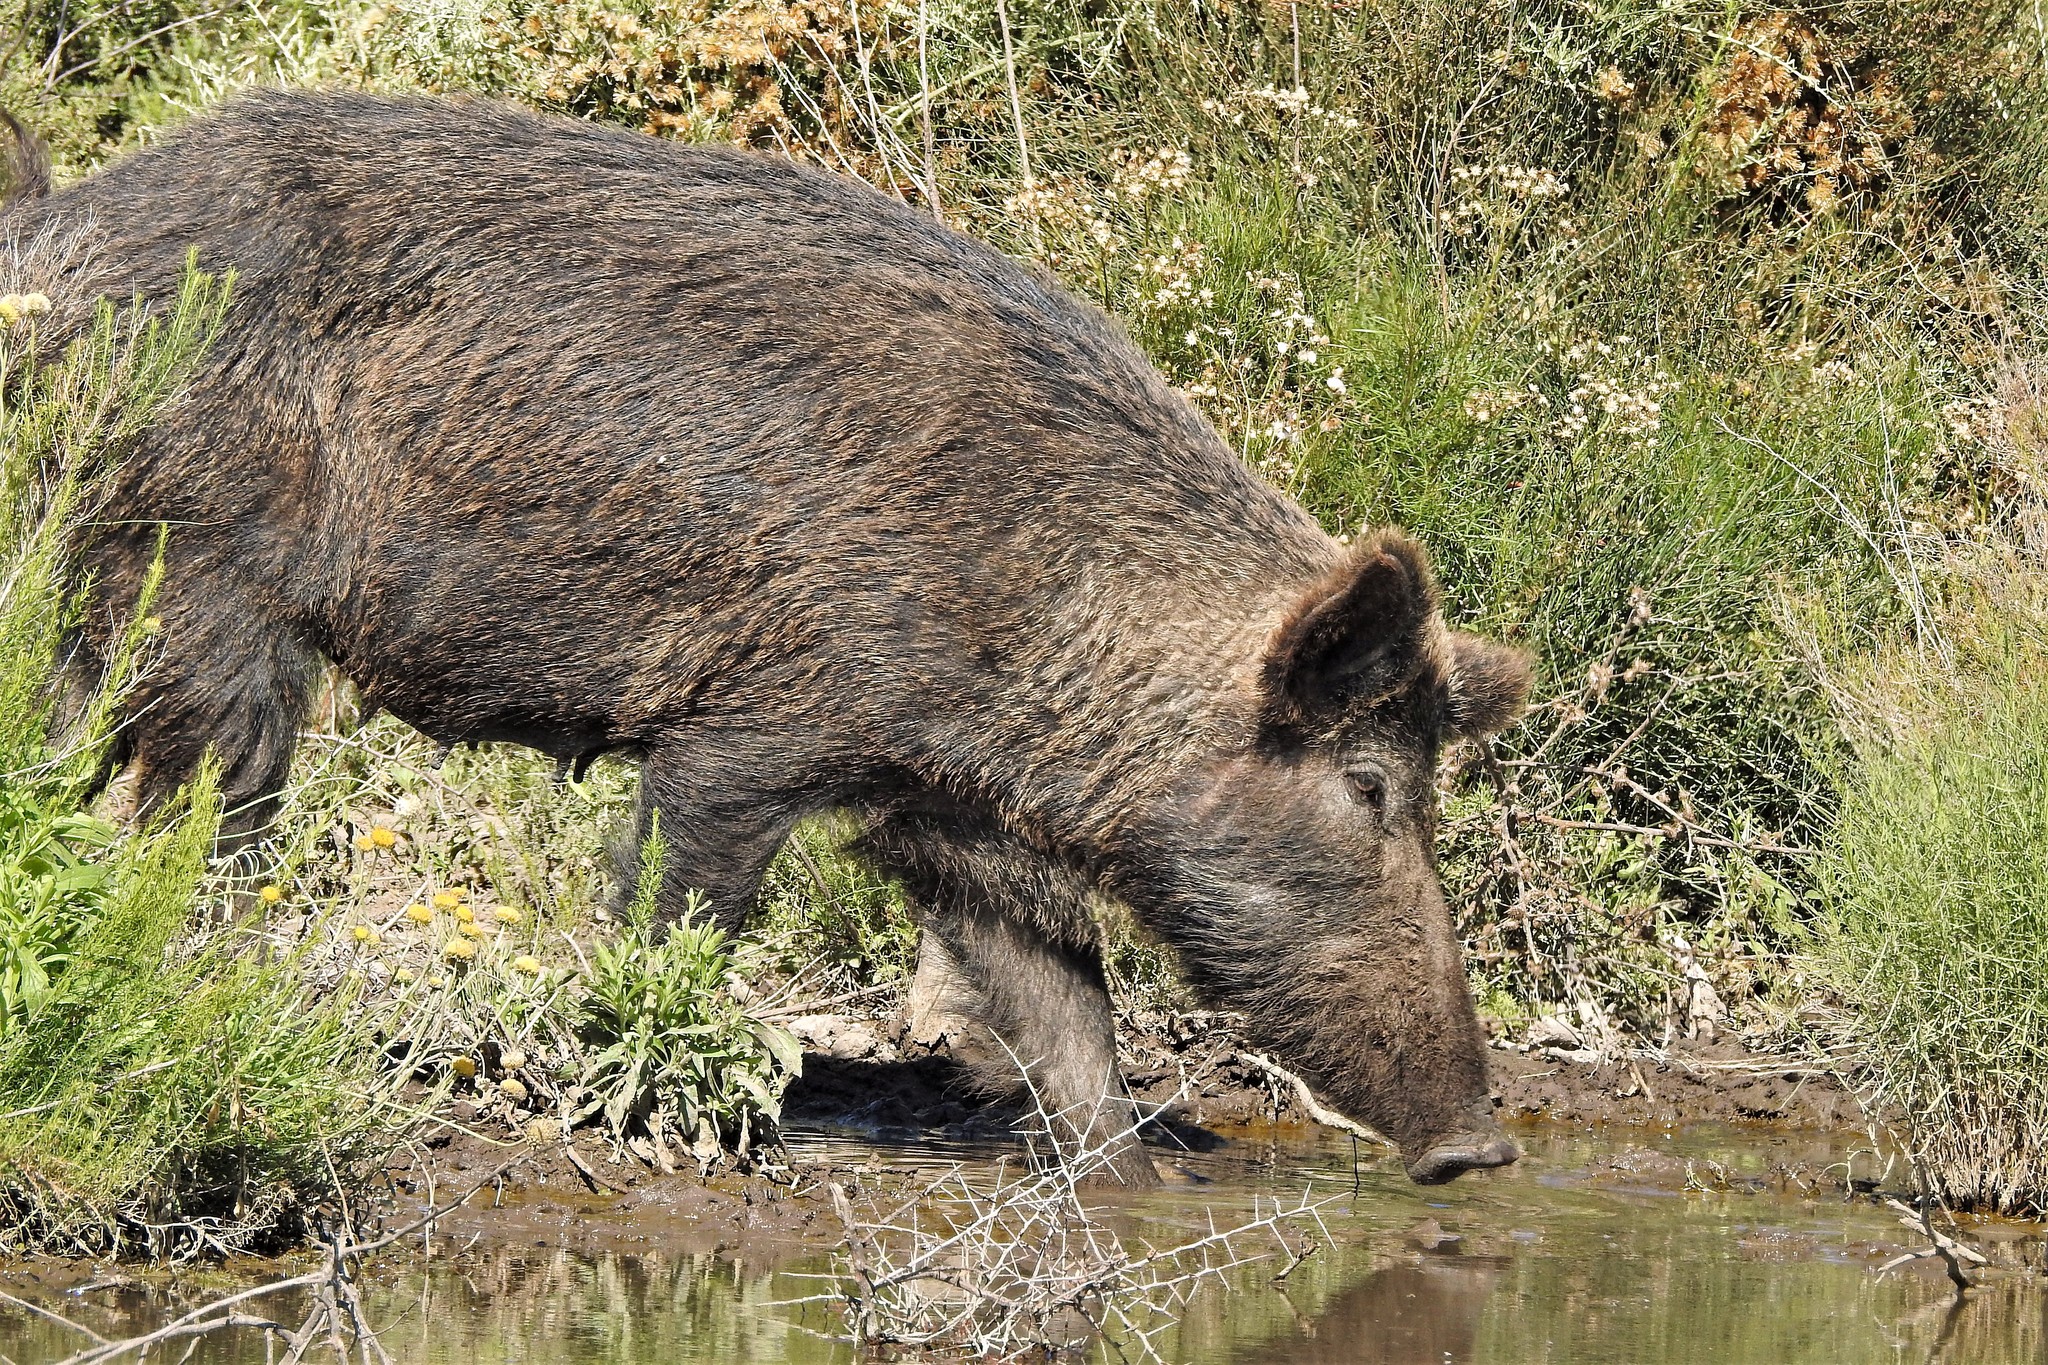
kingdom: Animalia
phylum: Chordata
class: Mammalia
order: Artiodactyla
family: Suidae
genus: Sus
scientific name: Sus scrofa
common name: Wild boar
